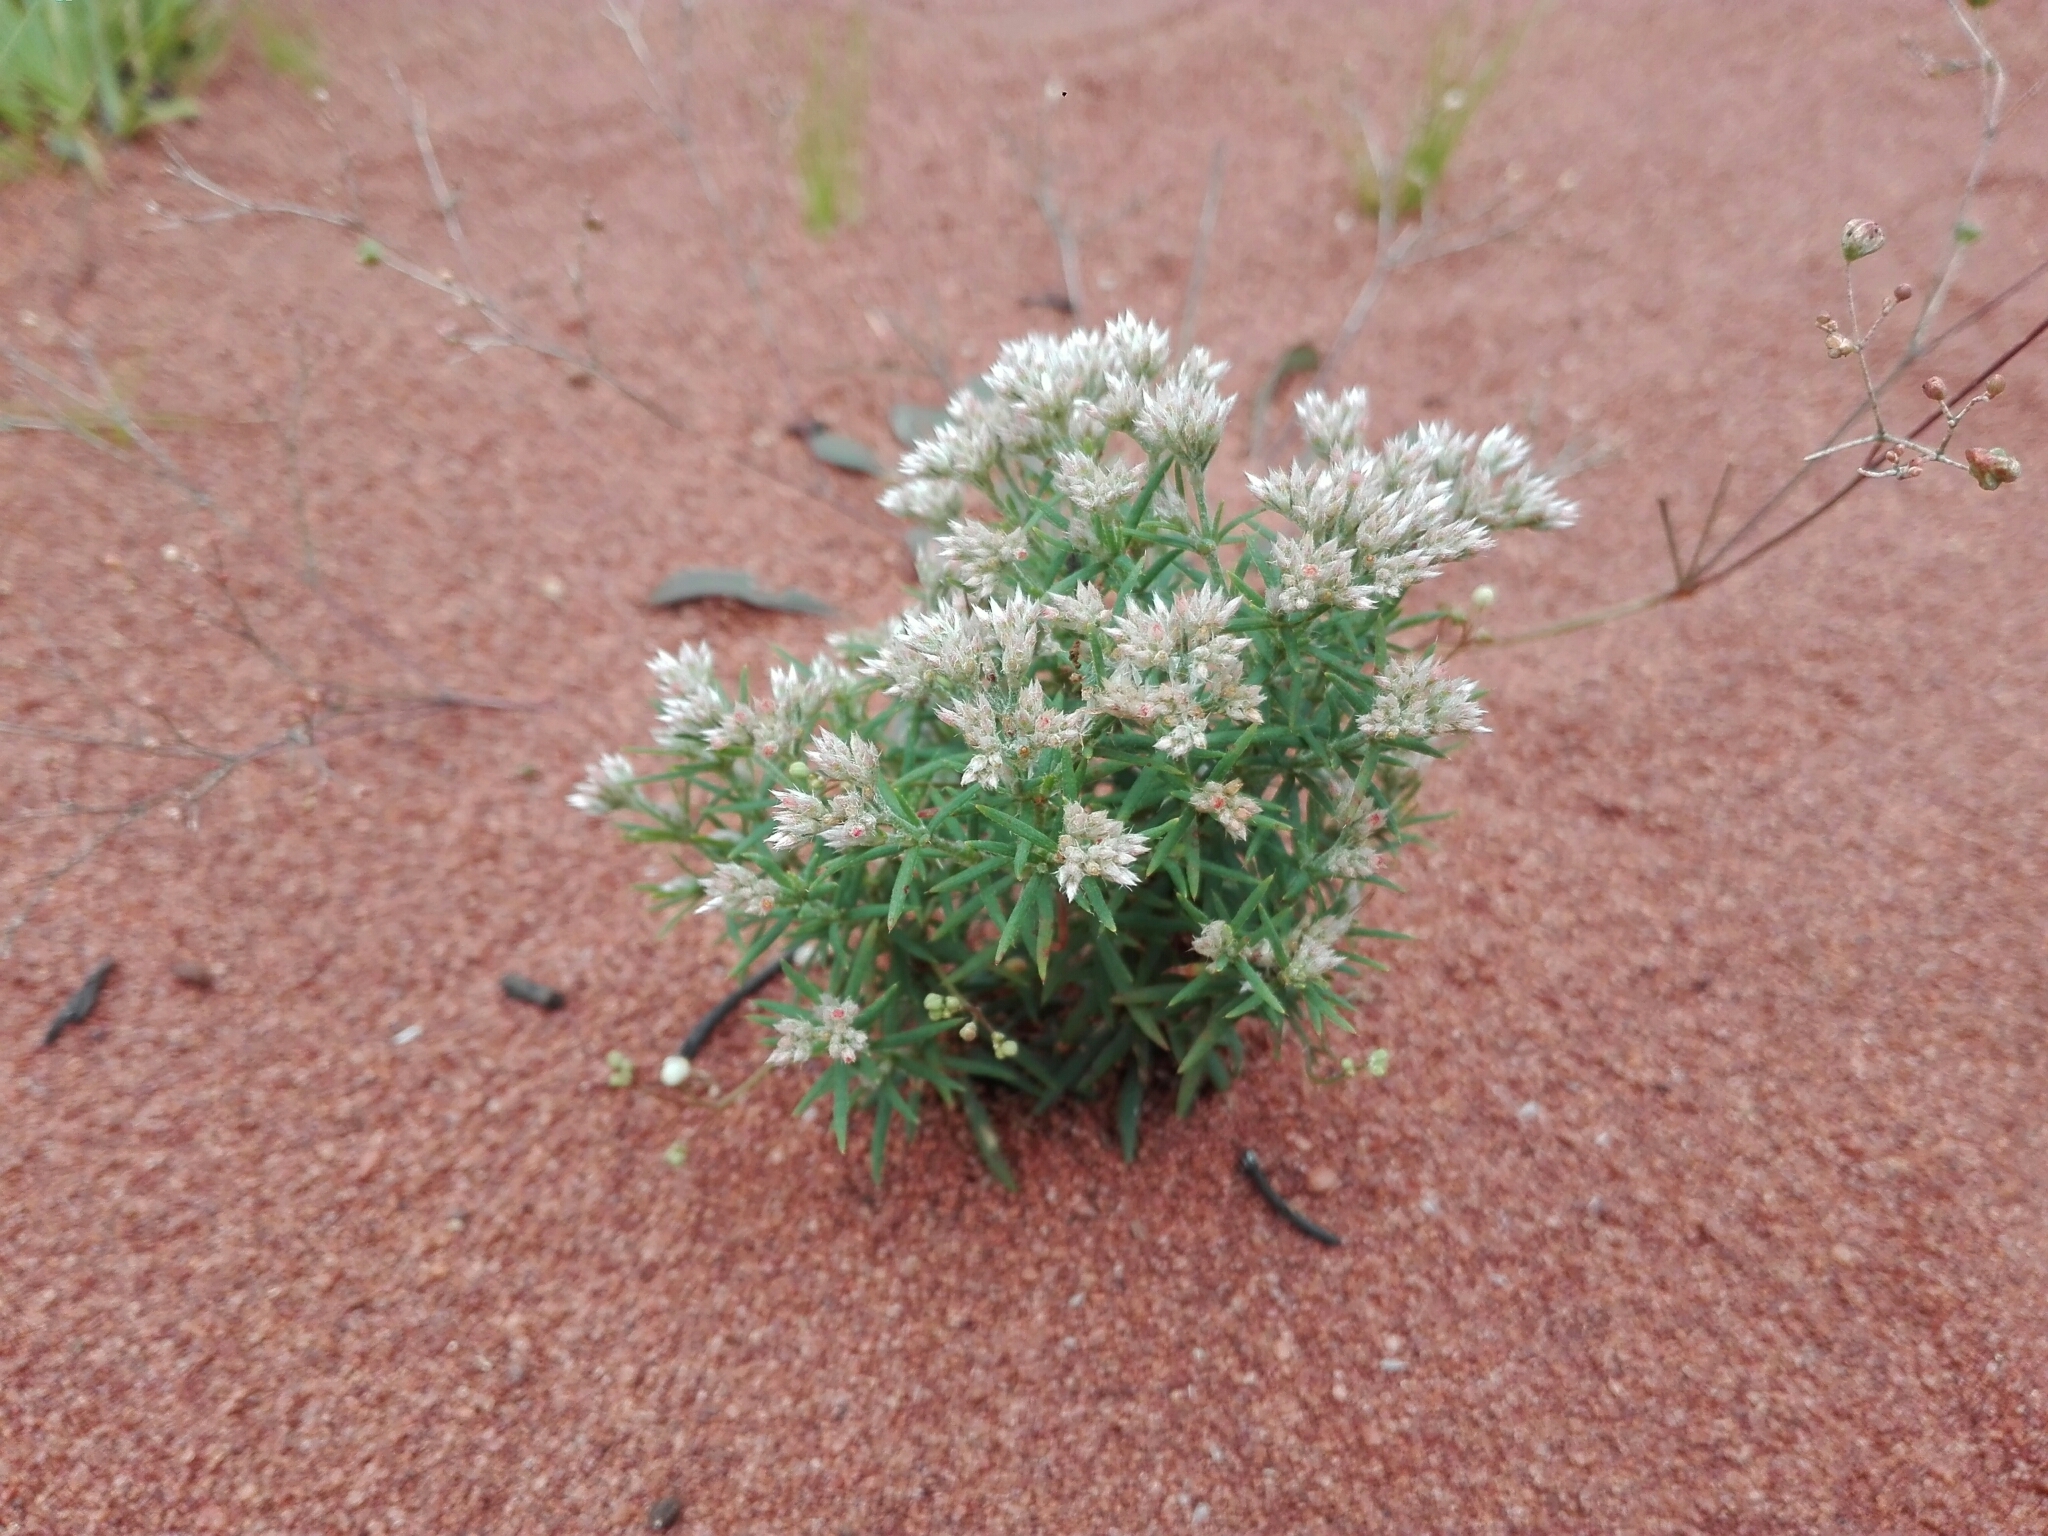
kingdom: Plantae
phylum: Tracheophyta
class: Magnoliopsida
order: Caryophyllales
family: Caryophyllaceae
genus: Polycarpaea
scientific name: Polycarpaea corymbosa
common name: Oldman's cap
